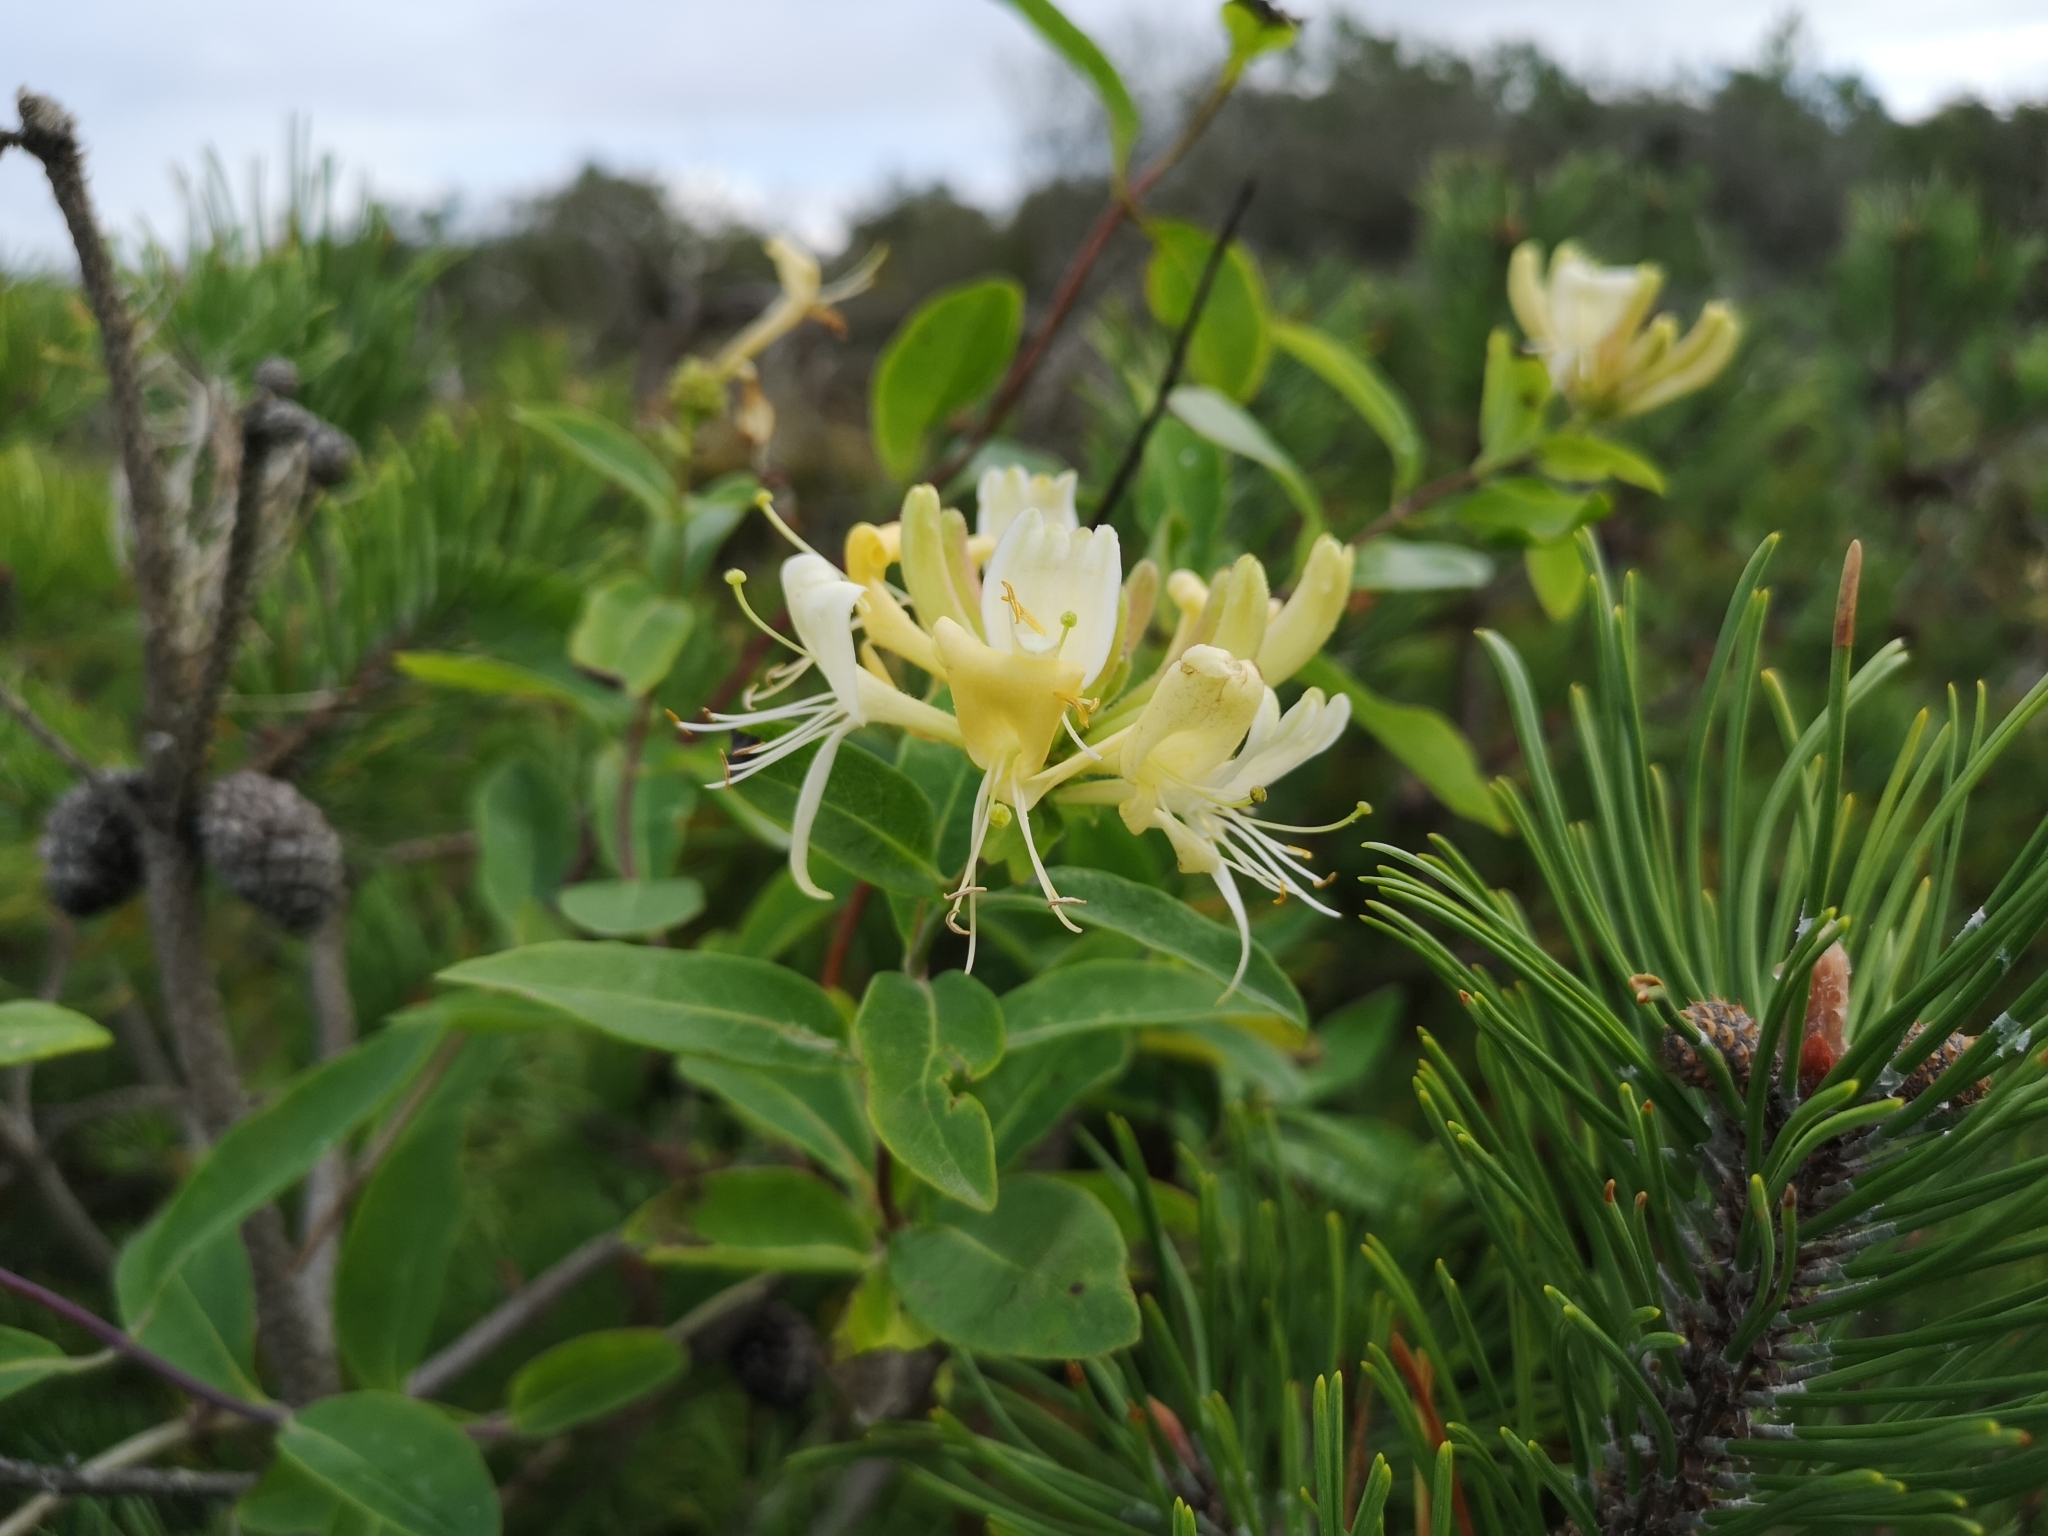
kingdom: Plantae
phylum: Tracheophyta
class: Magnoliopsida
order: Dipsacales
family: Caprifoliaceae
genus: Lonicera
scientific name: Lonicera periclymenum
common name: European honeysuckle
